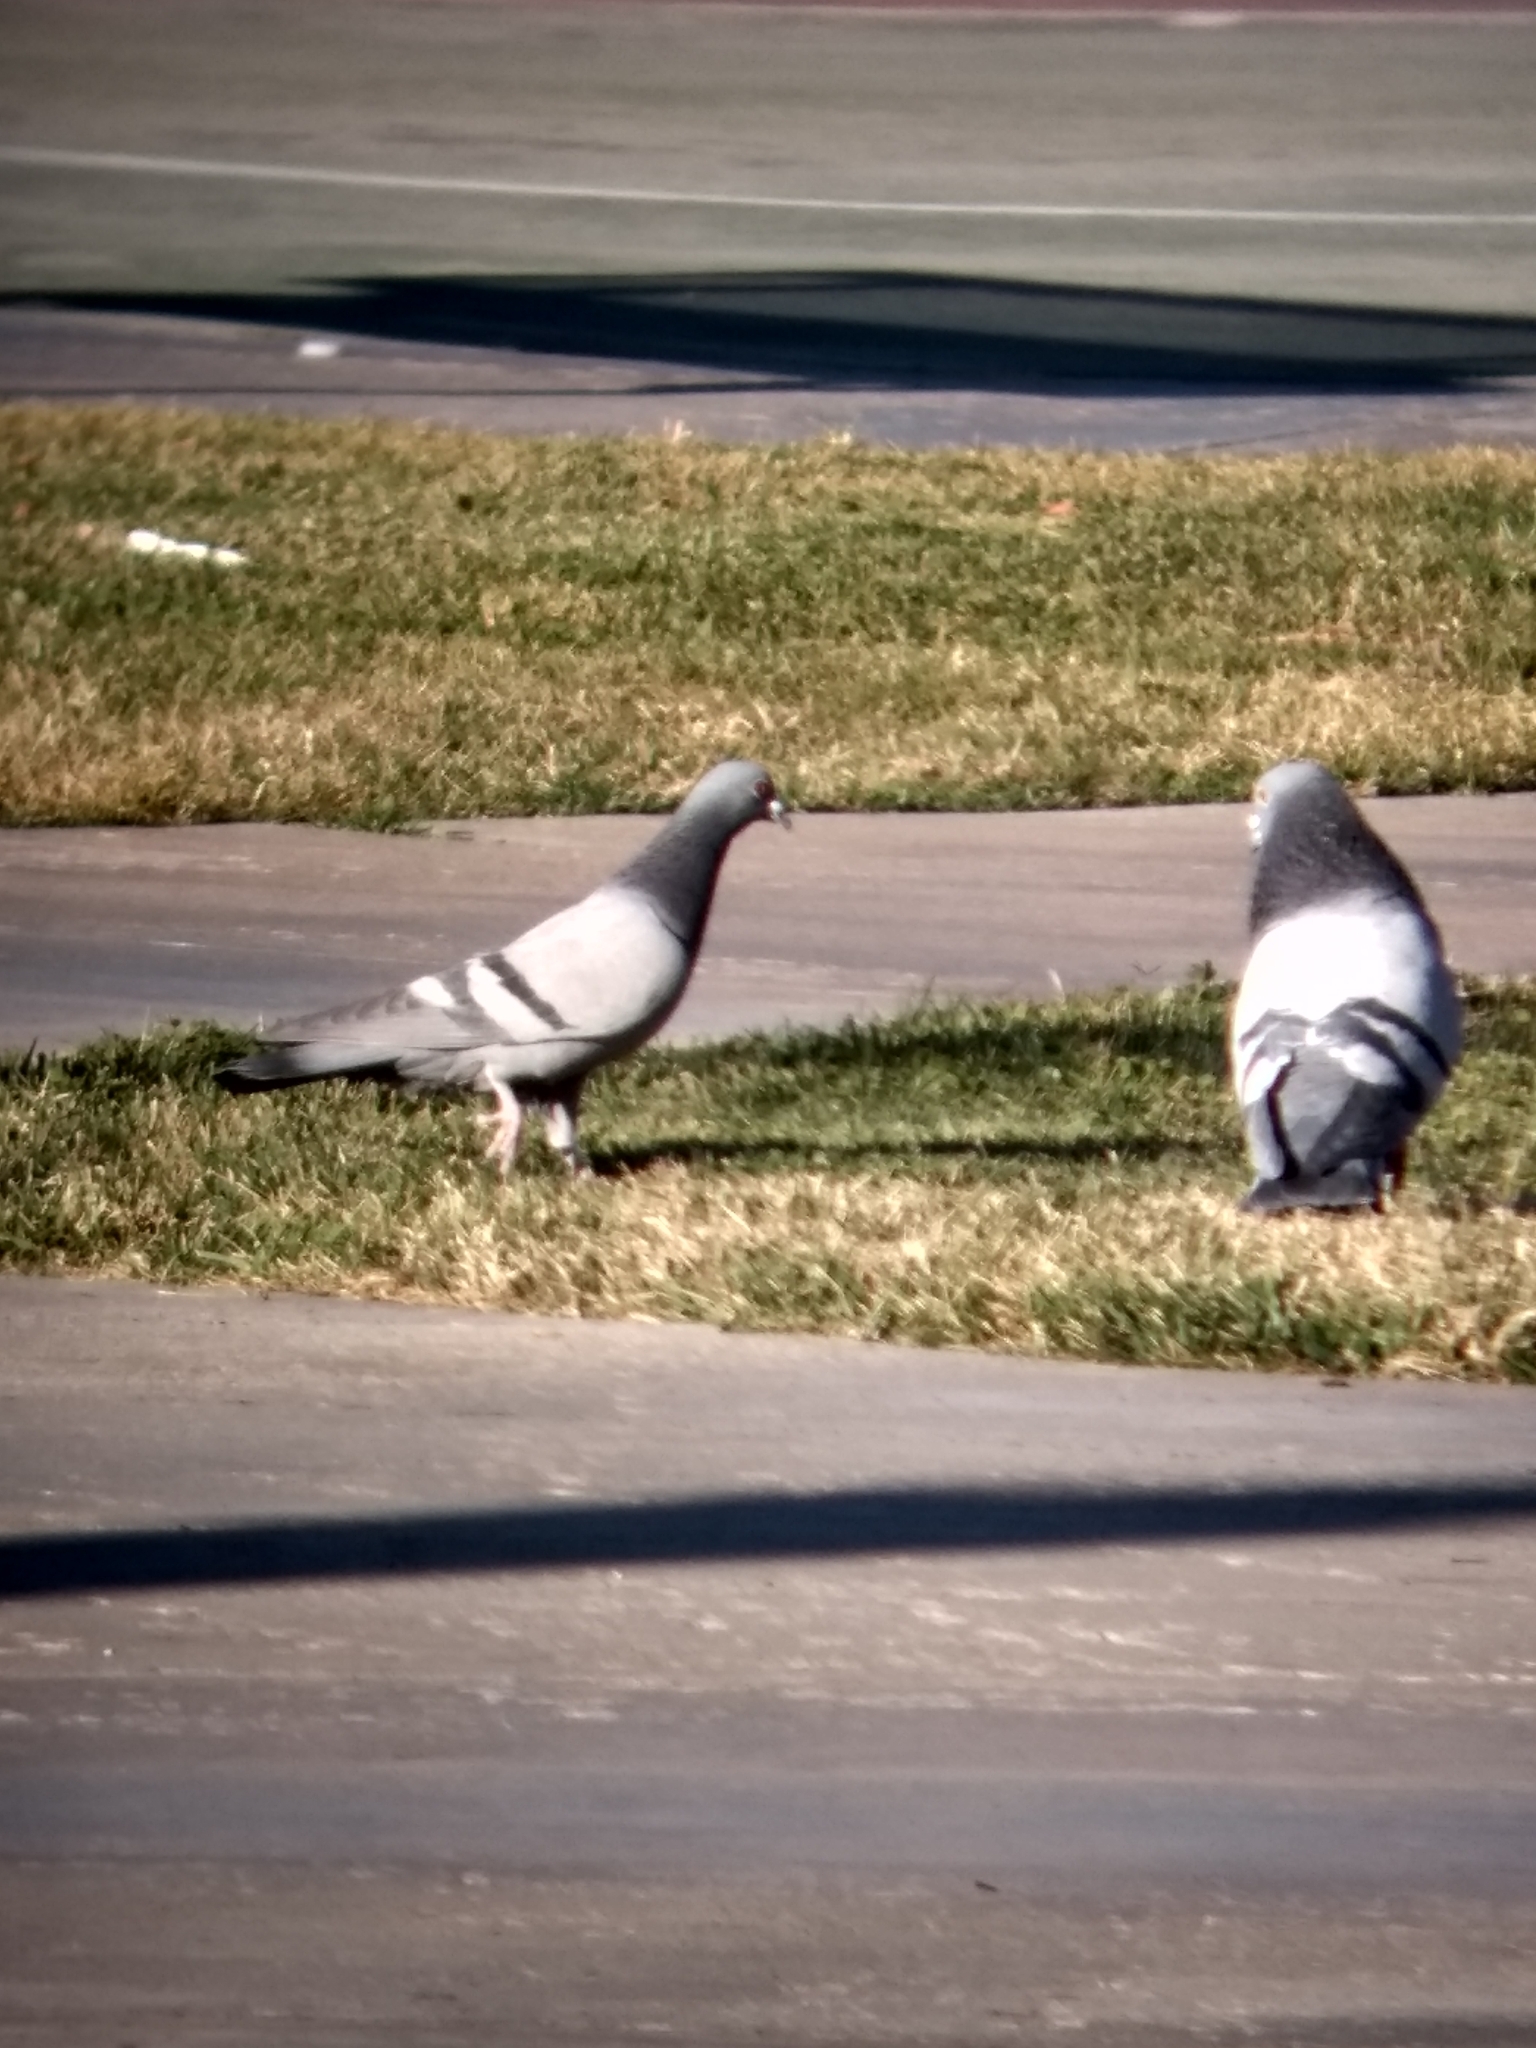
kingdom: Animalia
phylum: Chordata
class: Aves
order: Columbiformes
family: Columbidae
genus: Columba
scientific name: Columba livia
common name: Rock pigeon
